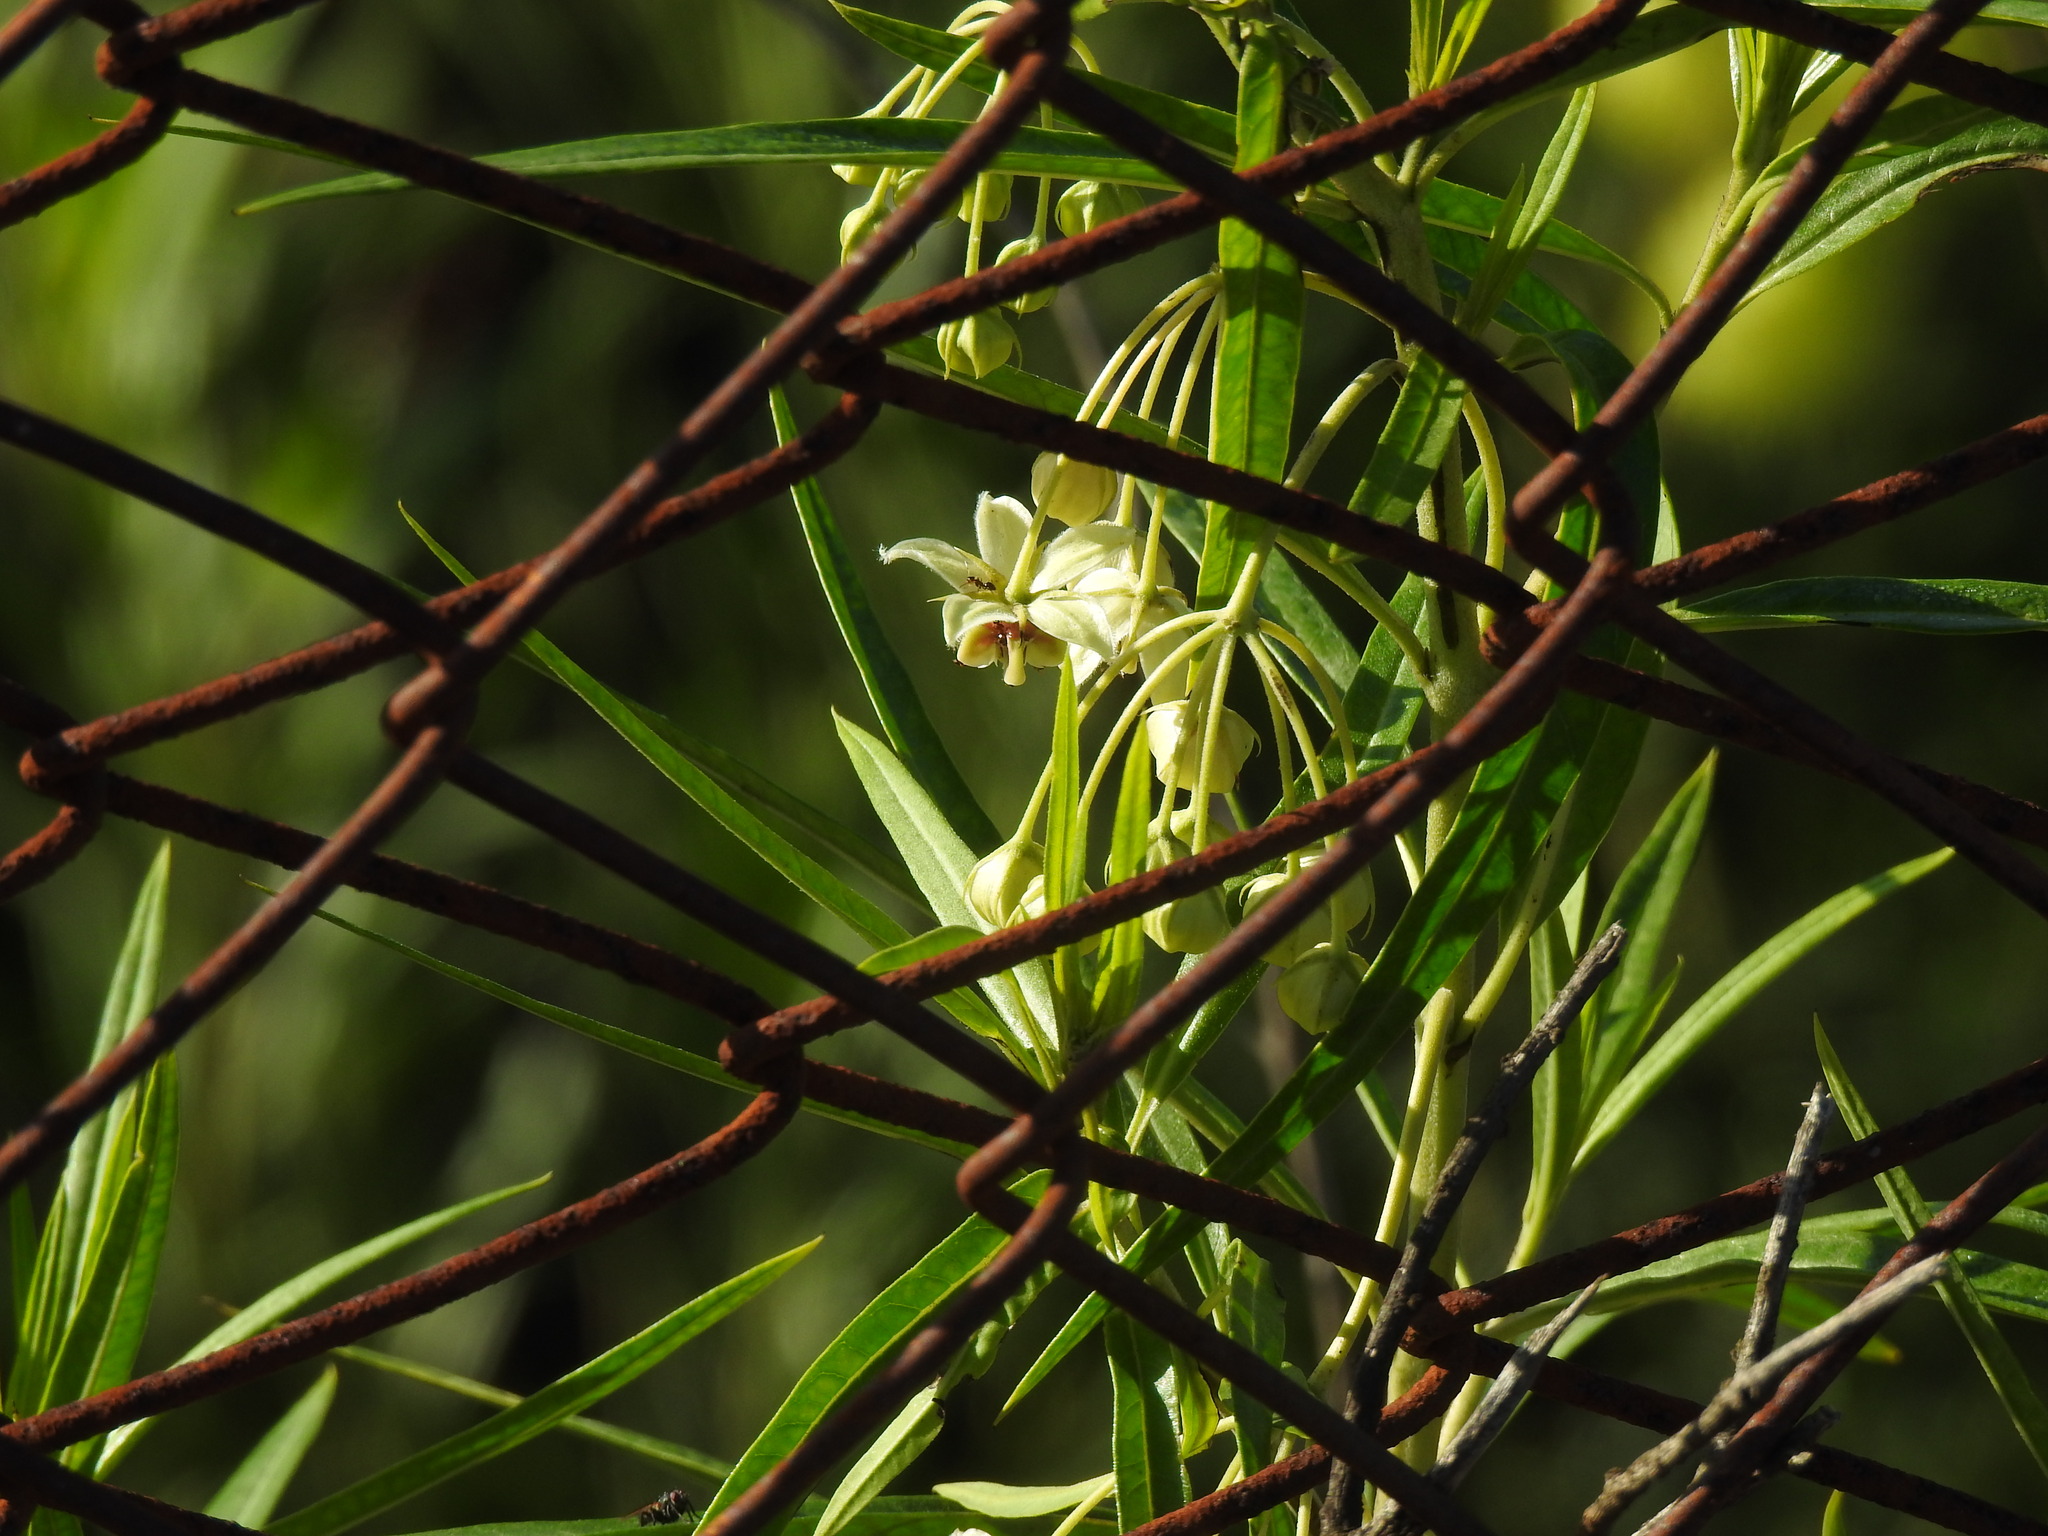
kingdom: Plantae
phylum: Tracheophyta
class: Magnoliopsida
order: Gentianales
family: Apocynaceae
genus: Gomphocarpus
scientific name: Gomphocarpus fruticosus
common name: Milkweed
